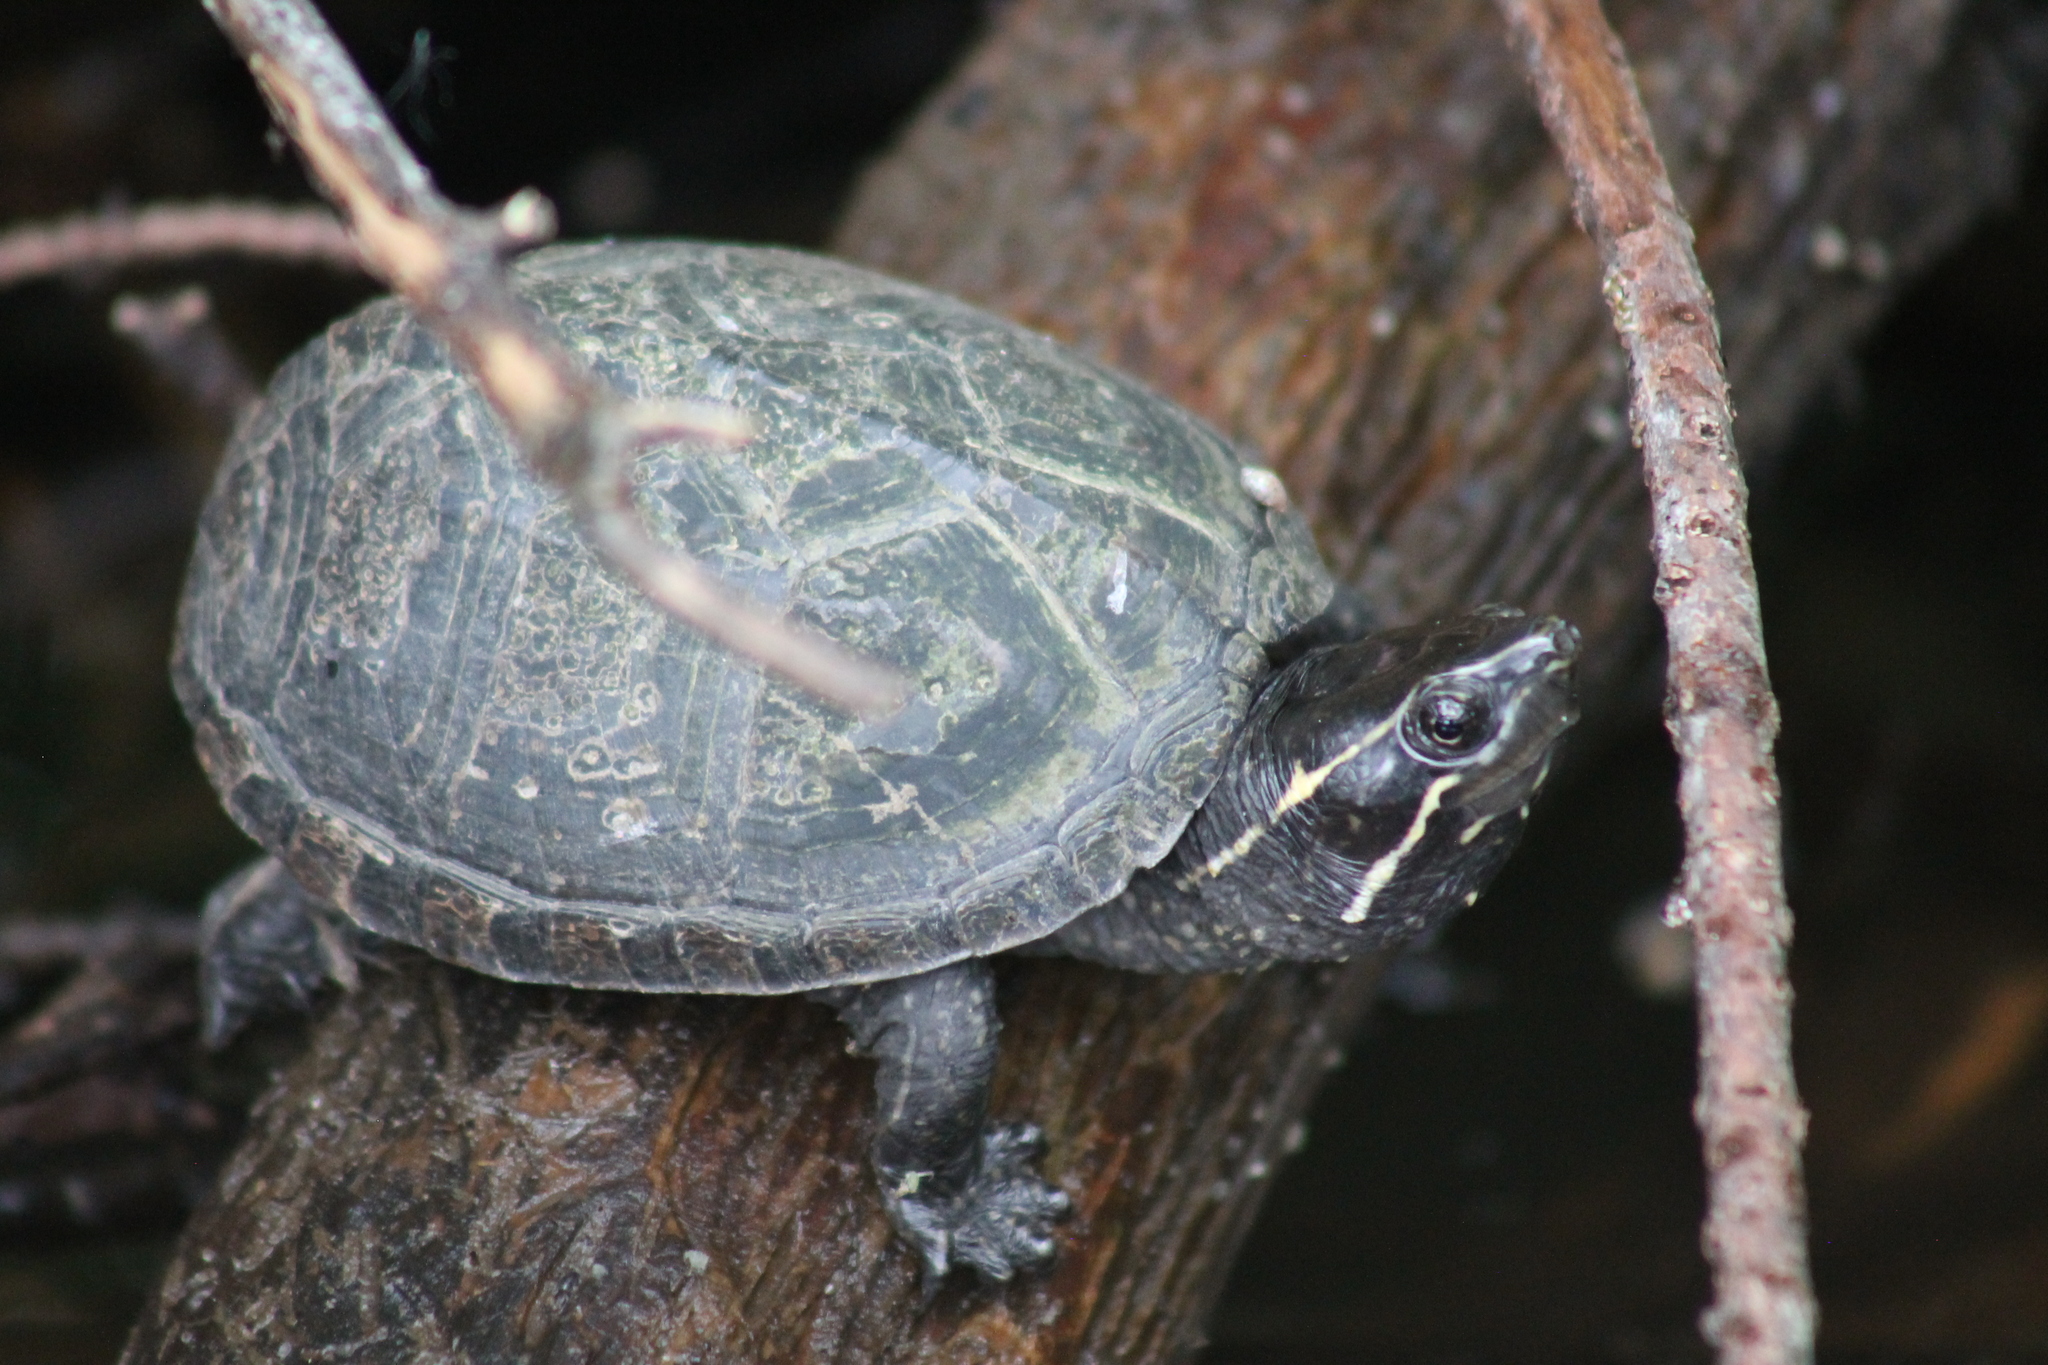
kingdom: Animalia
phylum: Chordata
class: Testudines
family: Kinosternidae
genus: Sternotherus
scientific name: Sternotherus odoratus
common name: Common musk turtle
